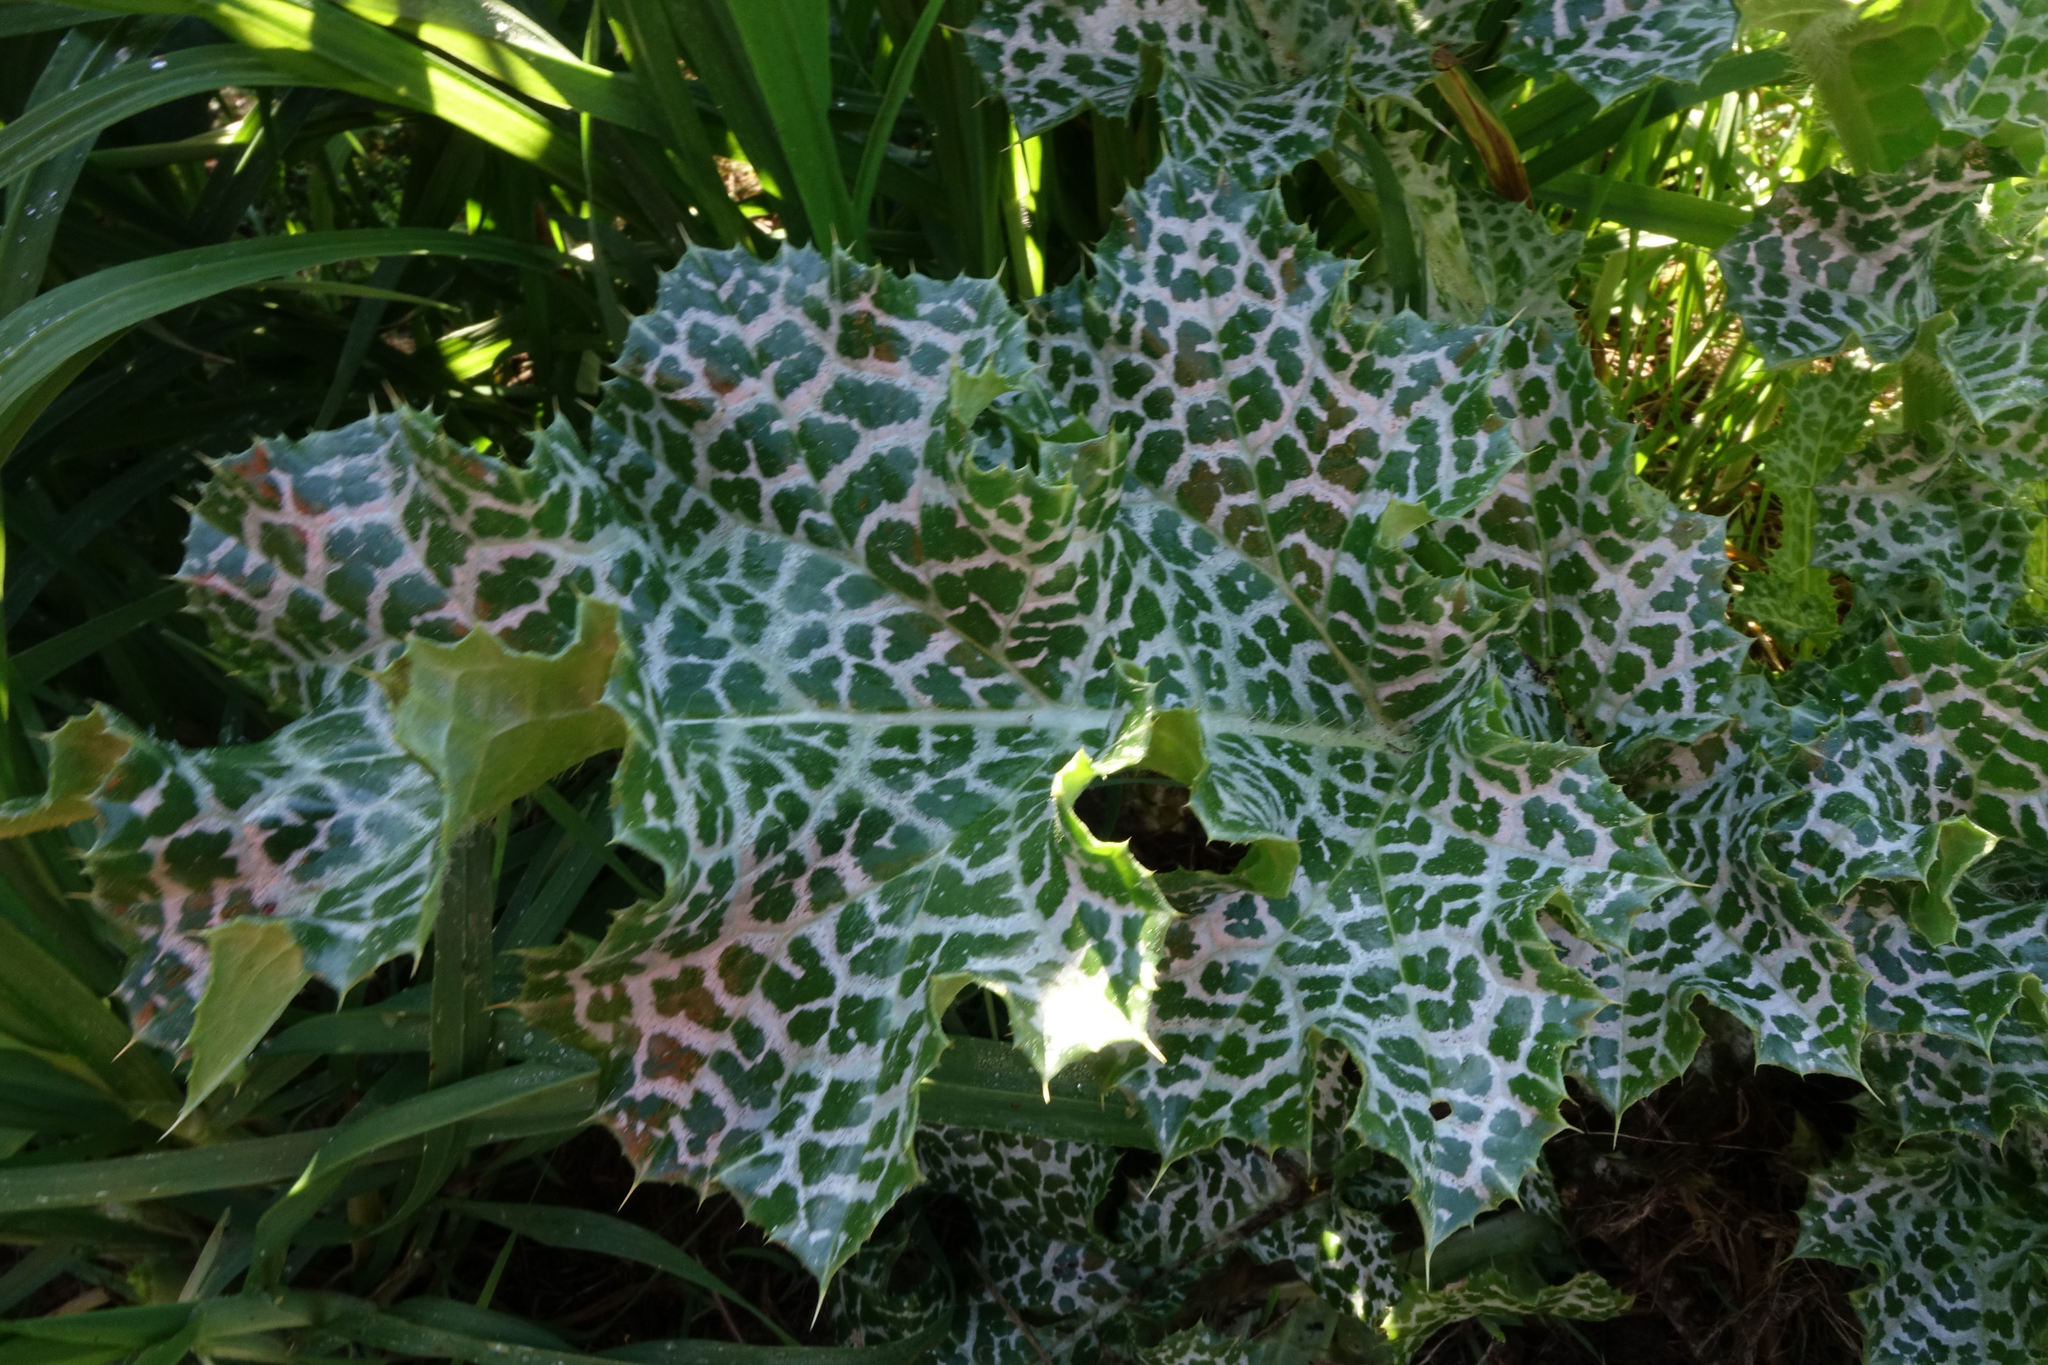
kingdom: Plantae
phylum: Tracheophyta
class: Magnoliopsida
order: Asterales
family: Asteraceae
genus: Silybum
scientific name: Silybum marianum
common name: Milk thistle
